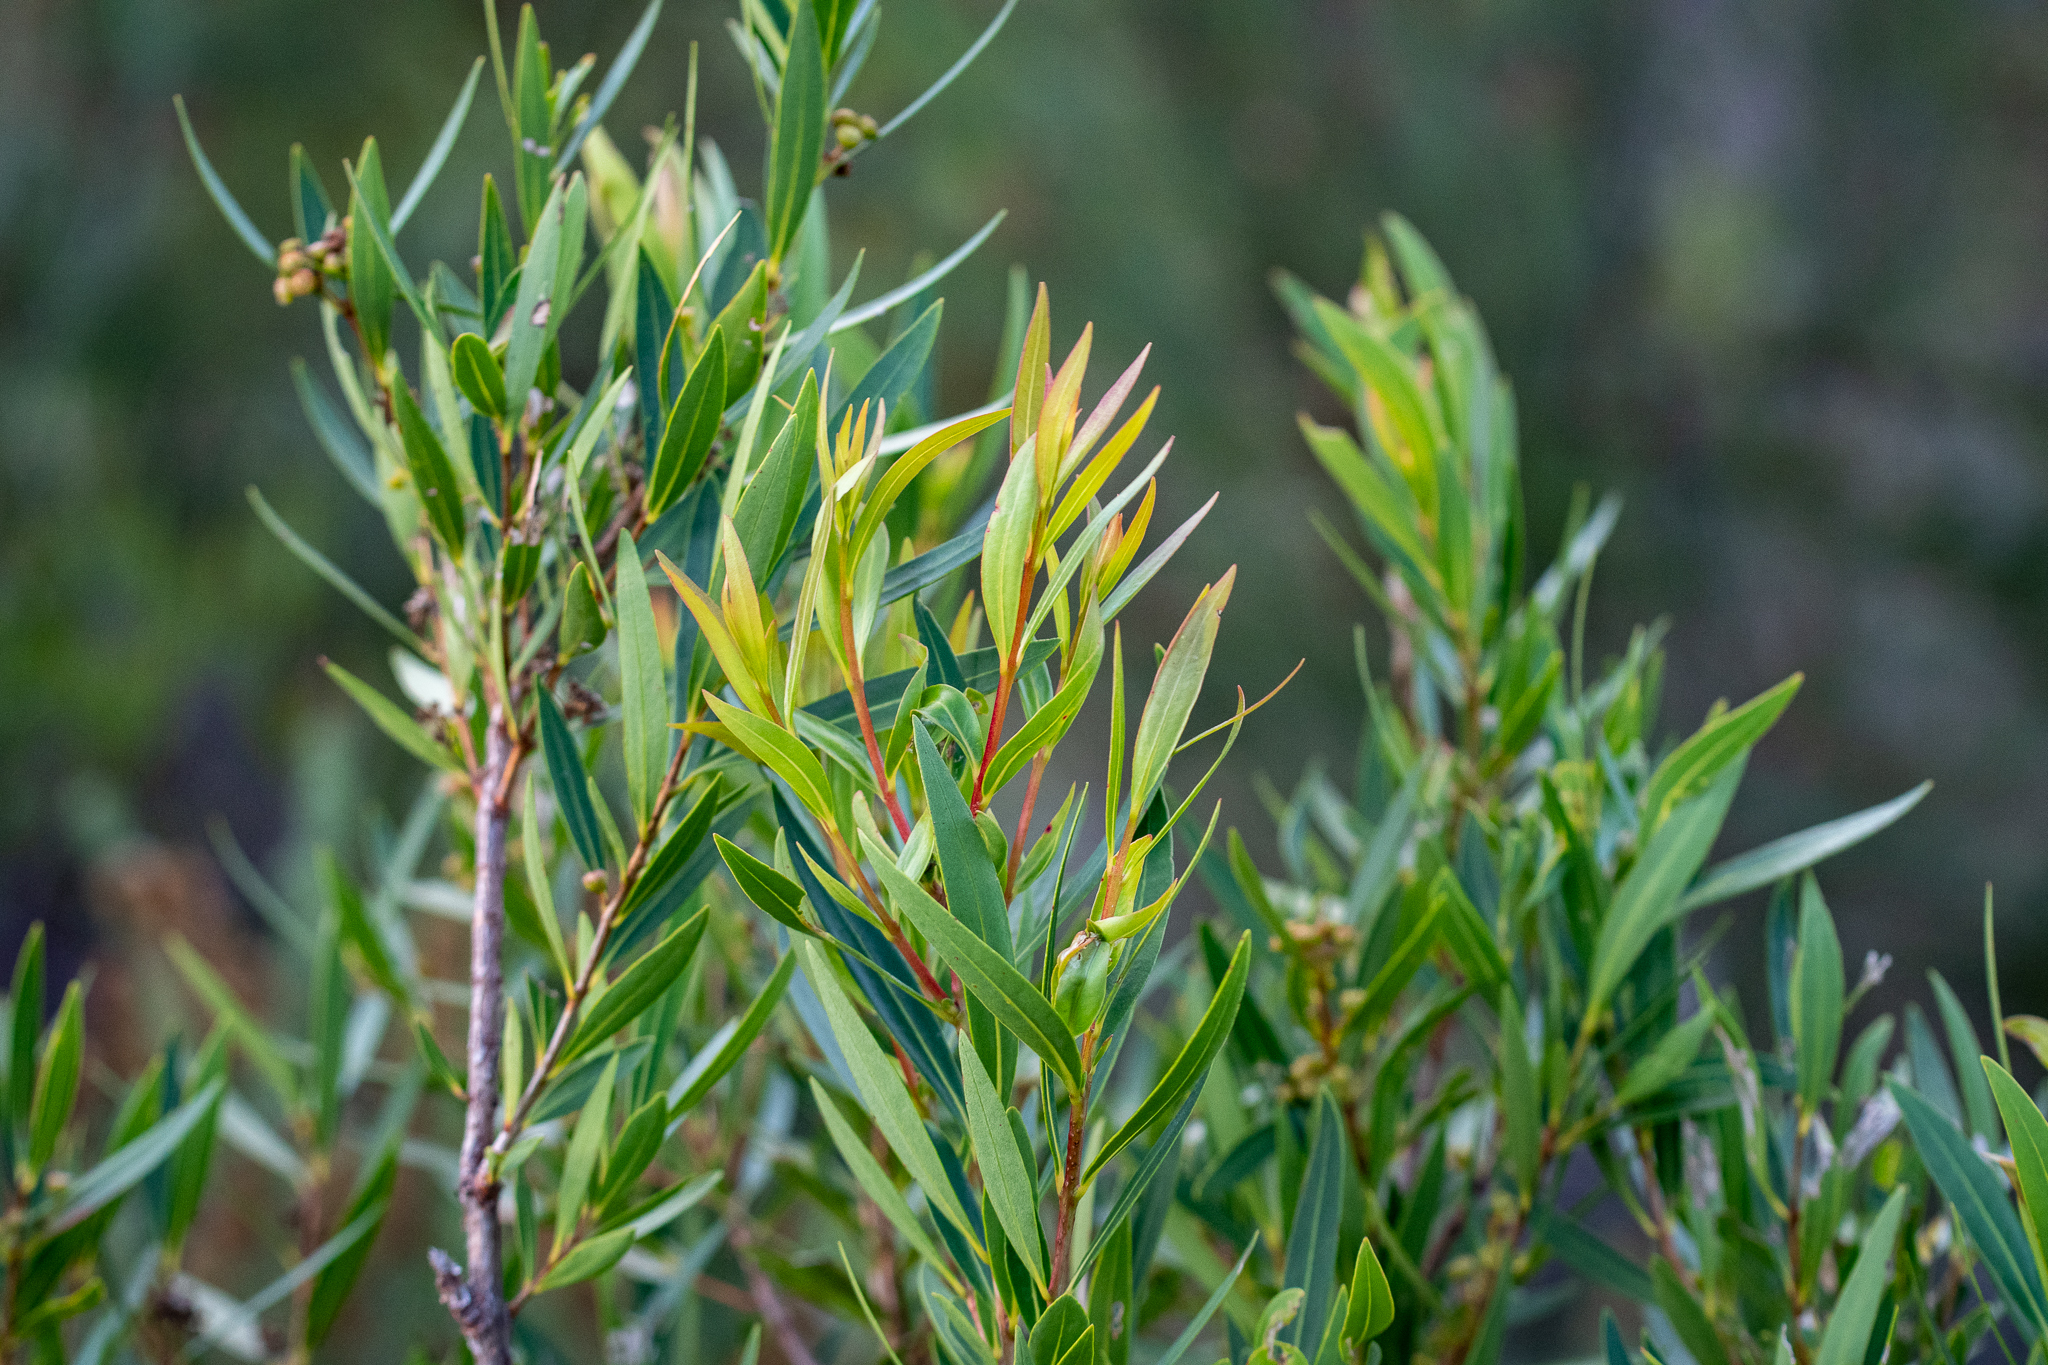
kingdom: Plantae
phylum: Tracheophyta
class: Magnoliopsida
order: Myrtales
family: Myrtaceae
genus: Callistemon
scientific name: Callistemon lanceolatus
